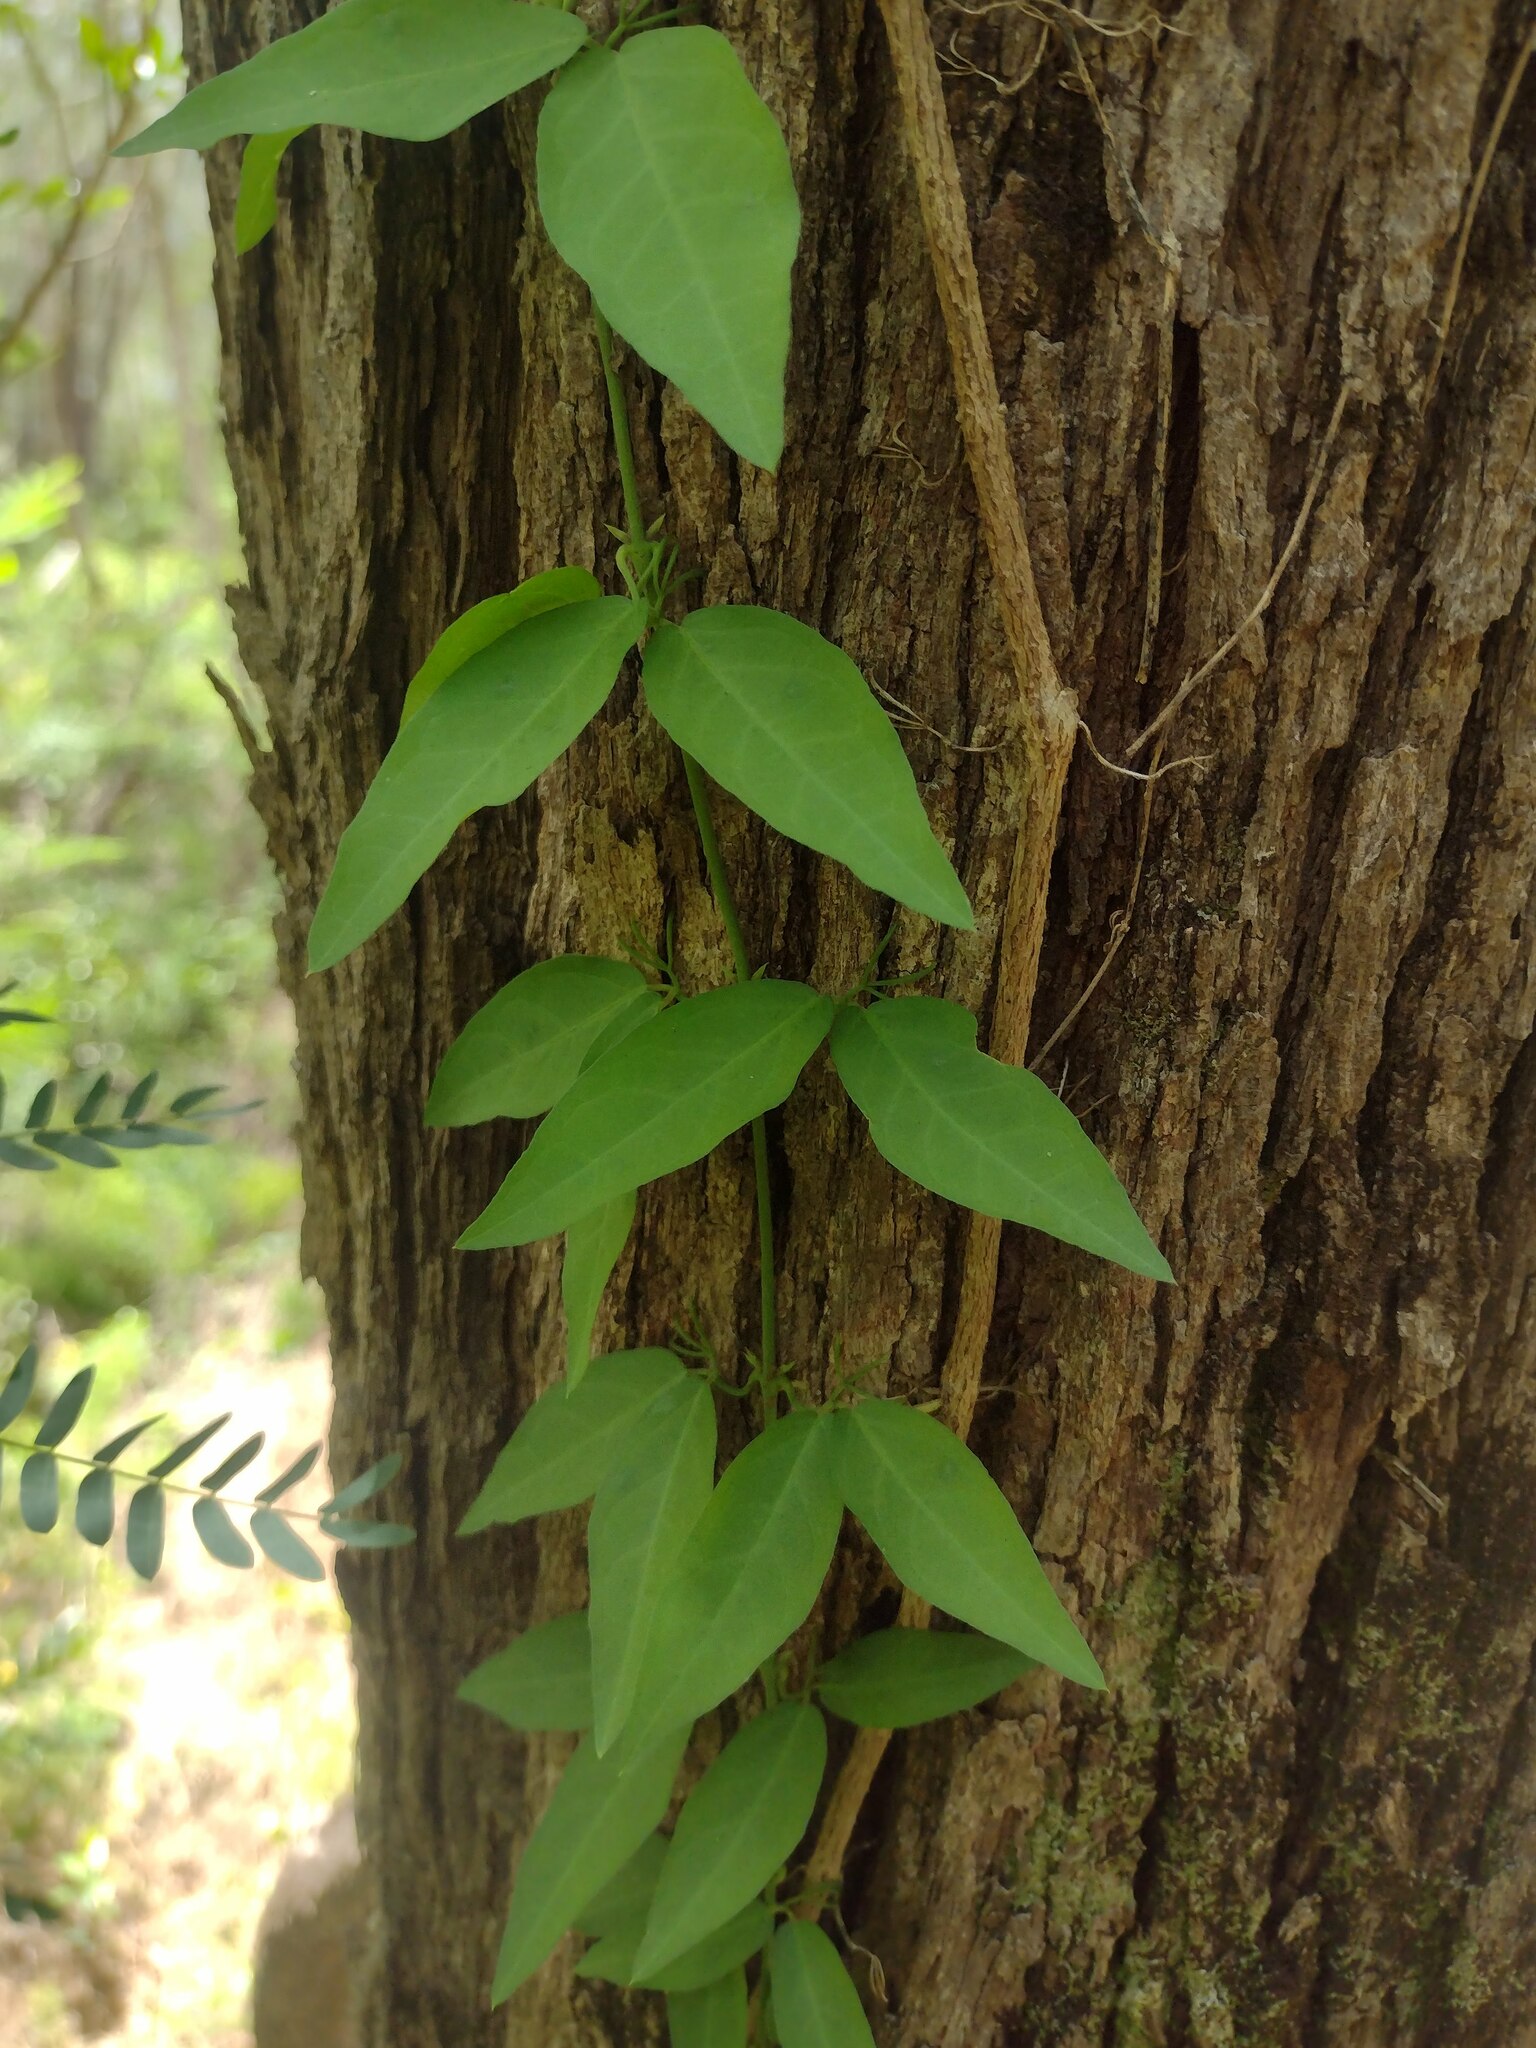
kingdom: Plantae
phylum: Tracheophyta
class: Magnoliopsida
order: Lamiales
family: Bignoniaceae
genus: Dolichandra
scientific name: Dolichandra unguis-cati
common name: Catclaw vine
